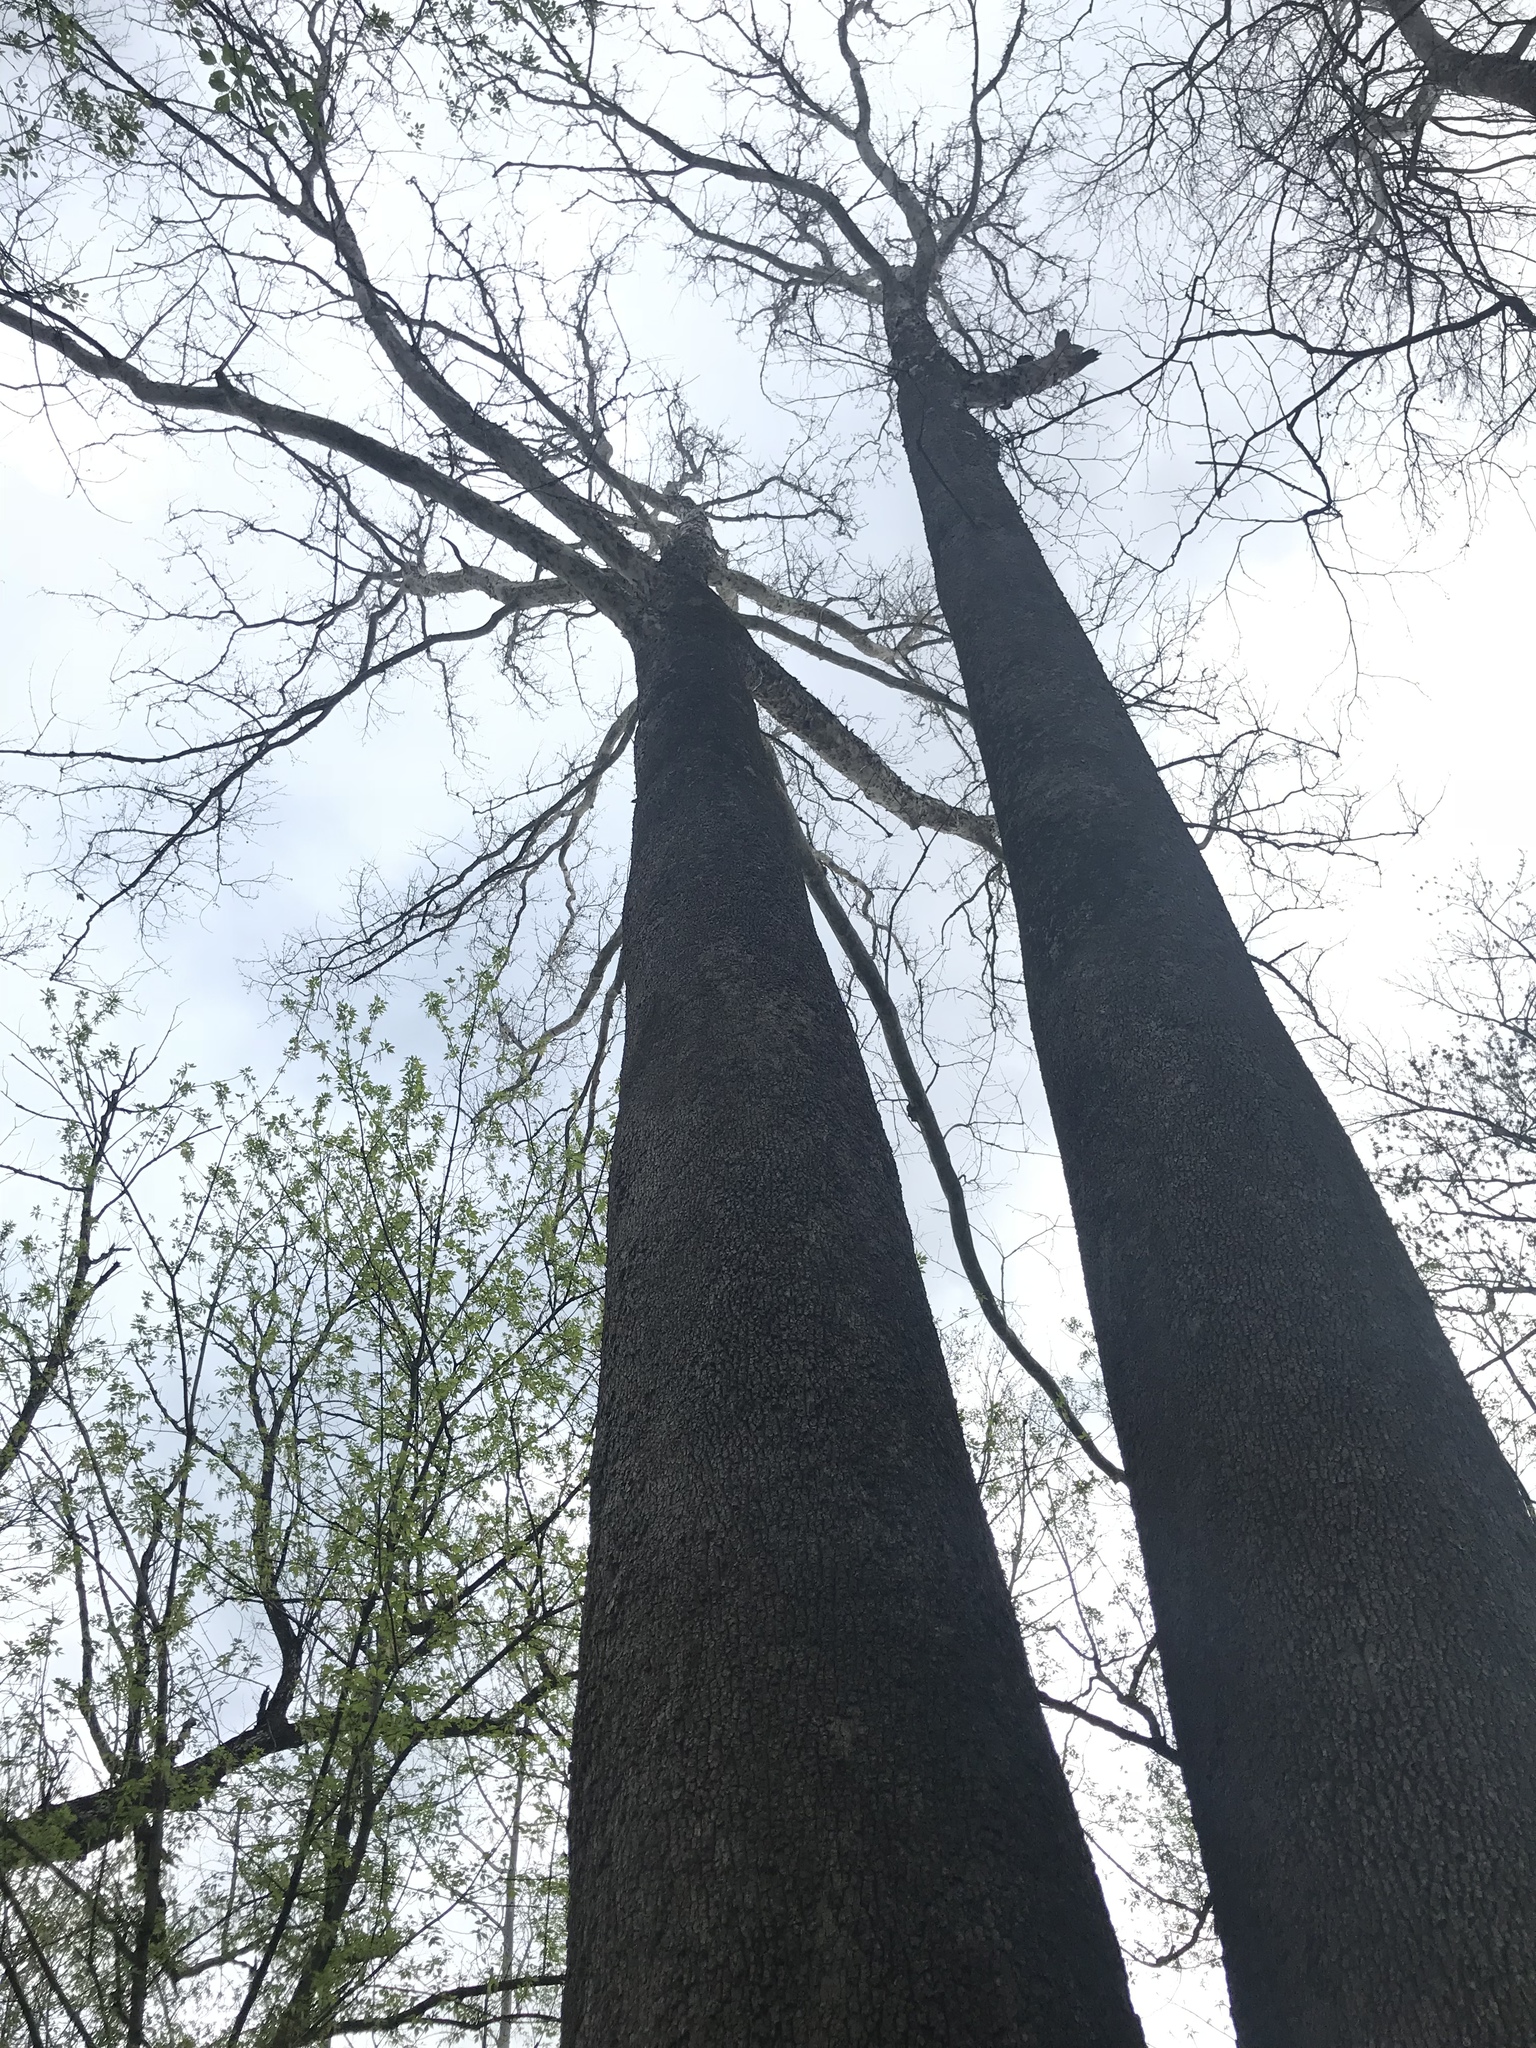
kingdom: Plantae
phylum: Tracheophyta
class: Magnoliopsida
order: Proteales
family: Platanaceae
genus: Platanus
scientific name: Platanus occidentalis
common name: American sycamore
